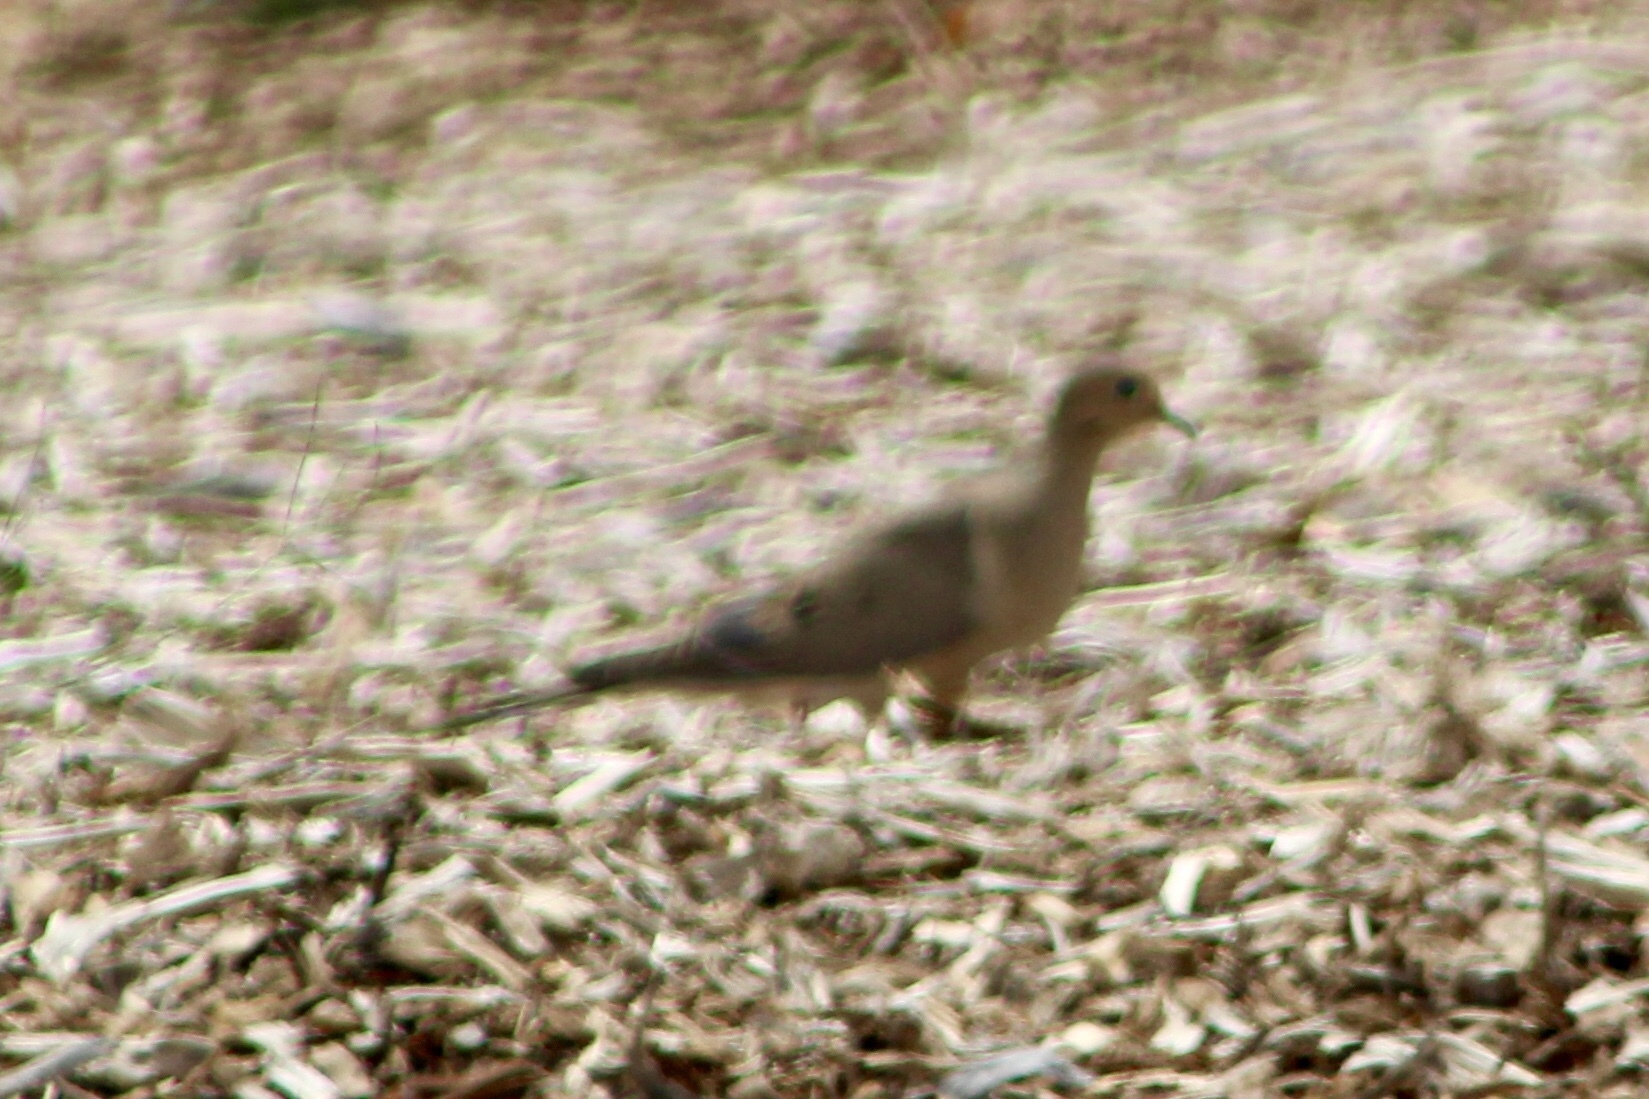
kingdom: Animalia
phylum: Chordata
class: Aves
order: Columbiformes
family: Columbidae
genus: Zenaida
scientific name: Zenaida macroura
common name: Mourning dove
